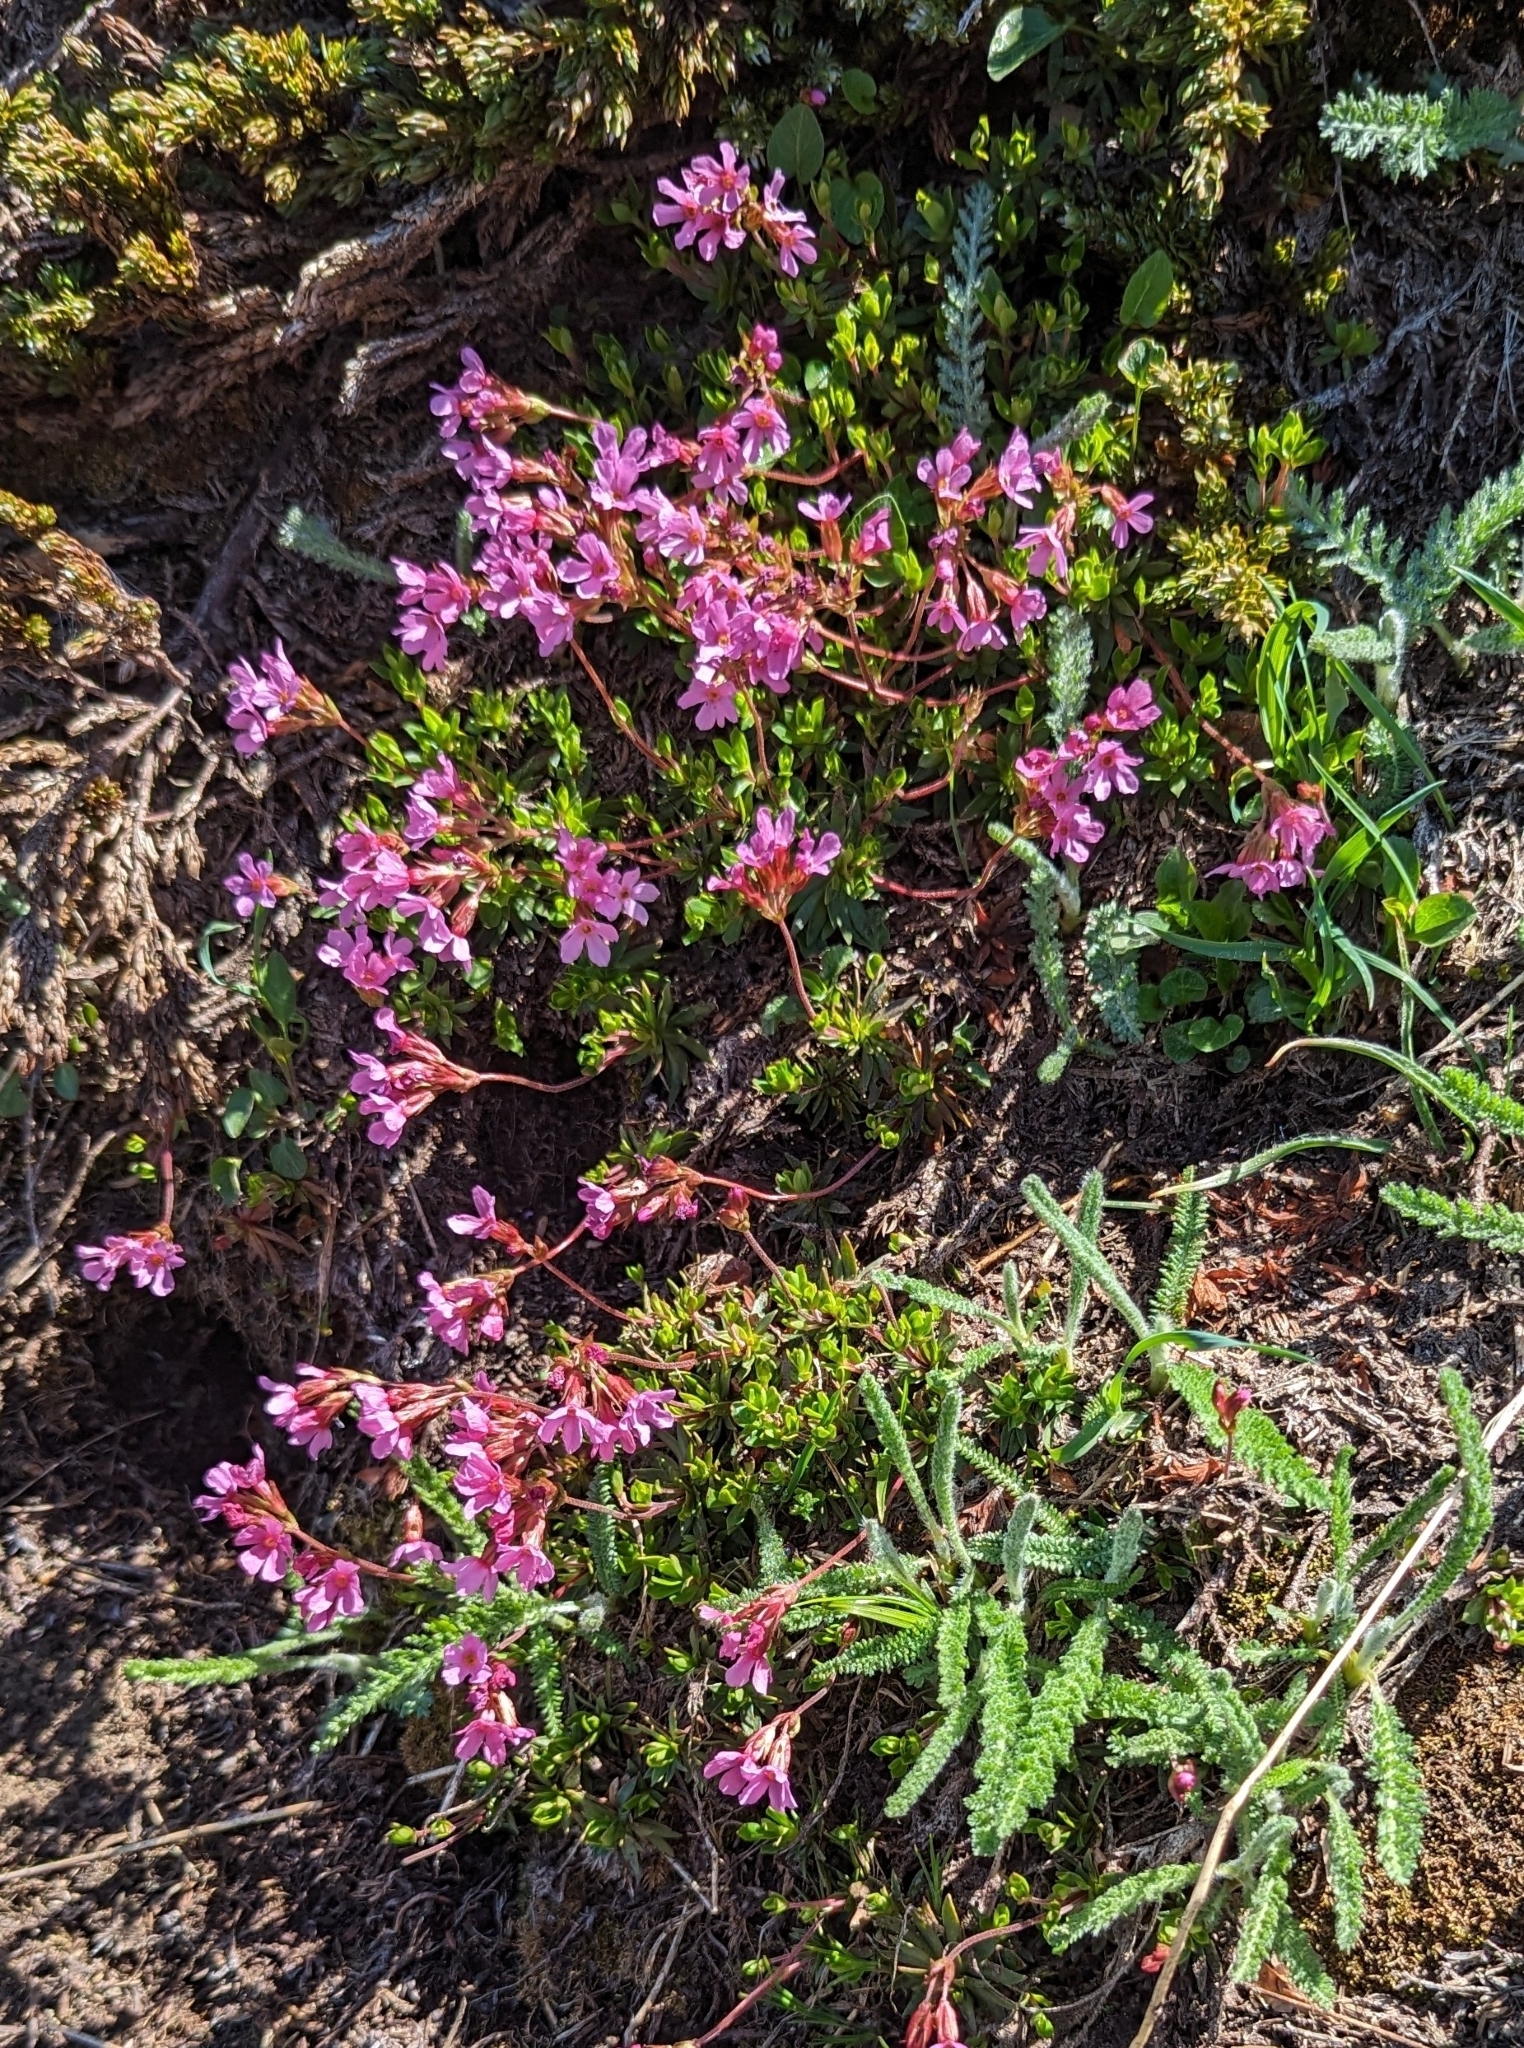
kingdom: Plantae
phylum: Tracheophyta
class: Magnoliopsida
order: Ericales
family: Primulaceae
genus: Androsace
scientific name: Androsace laevigata
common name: Cliff dwarf-primrose
